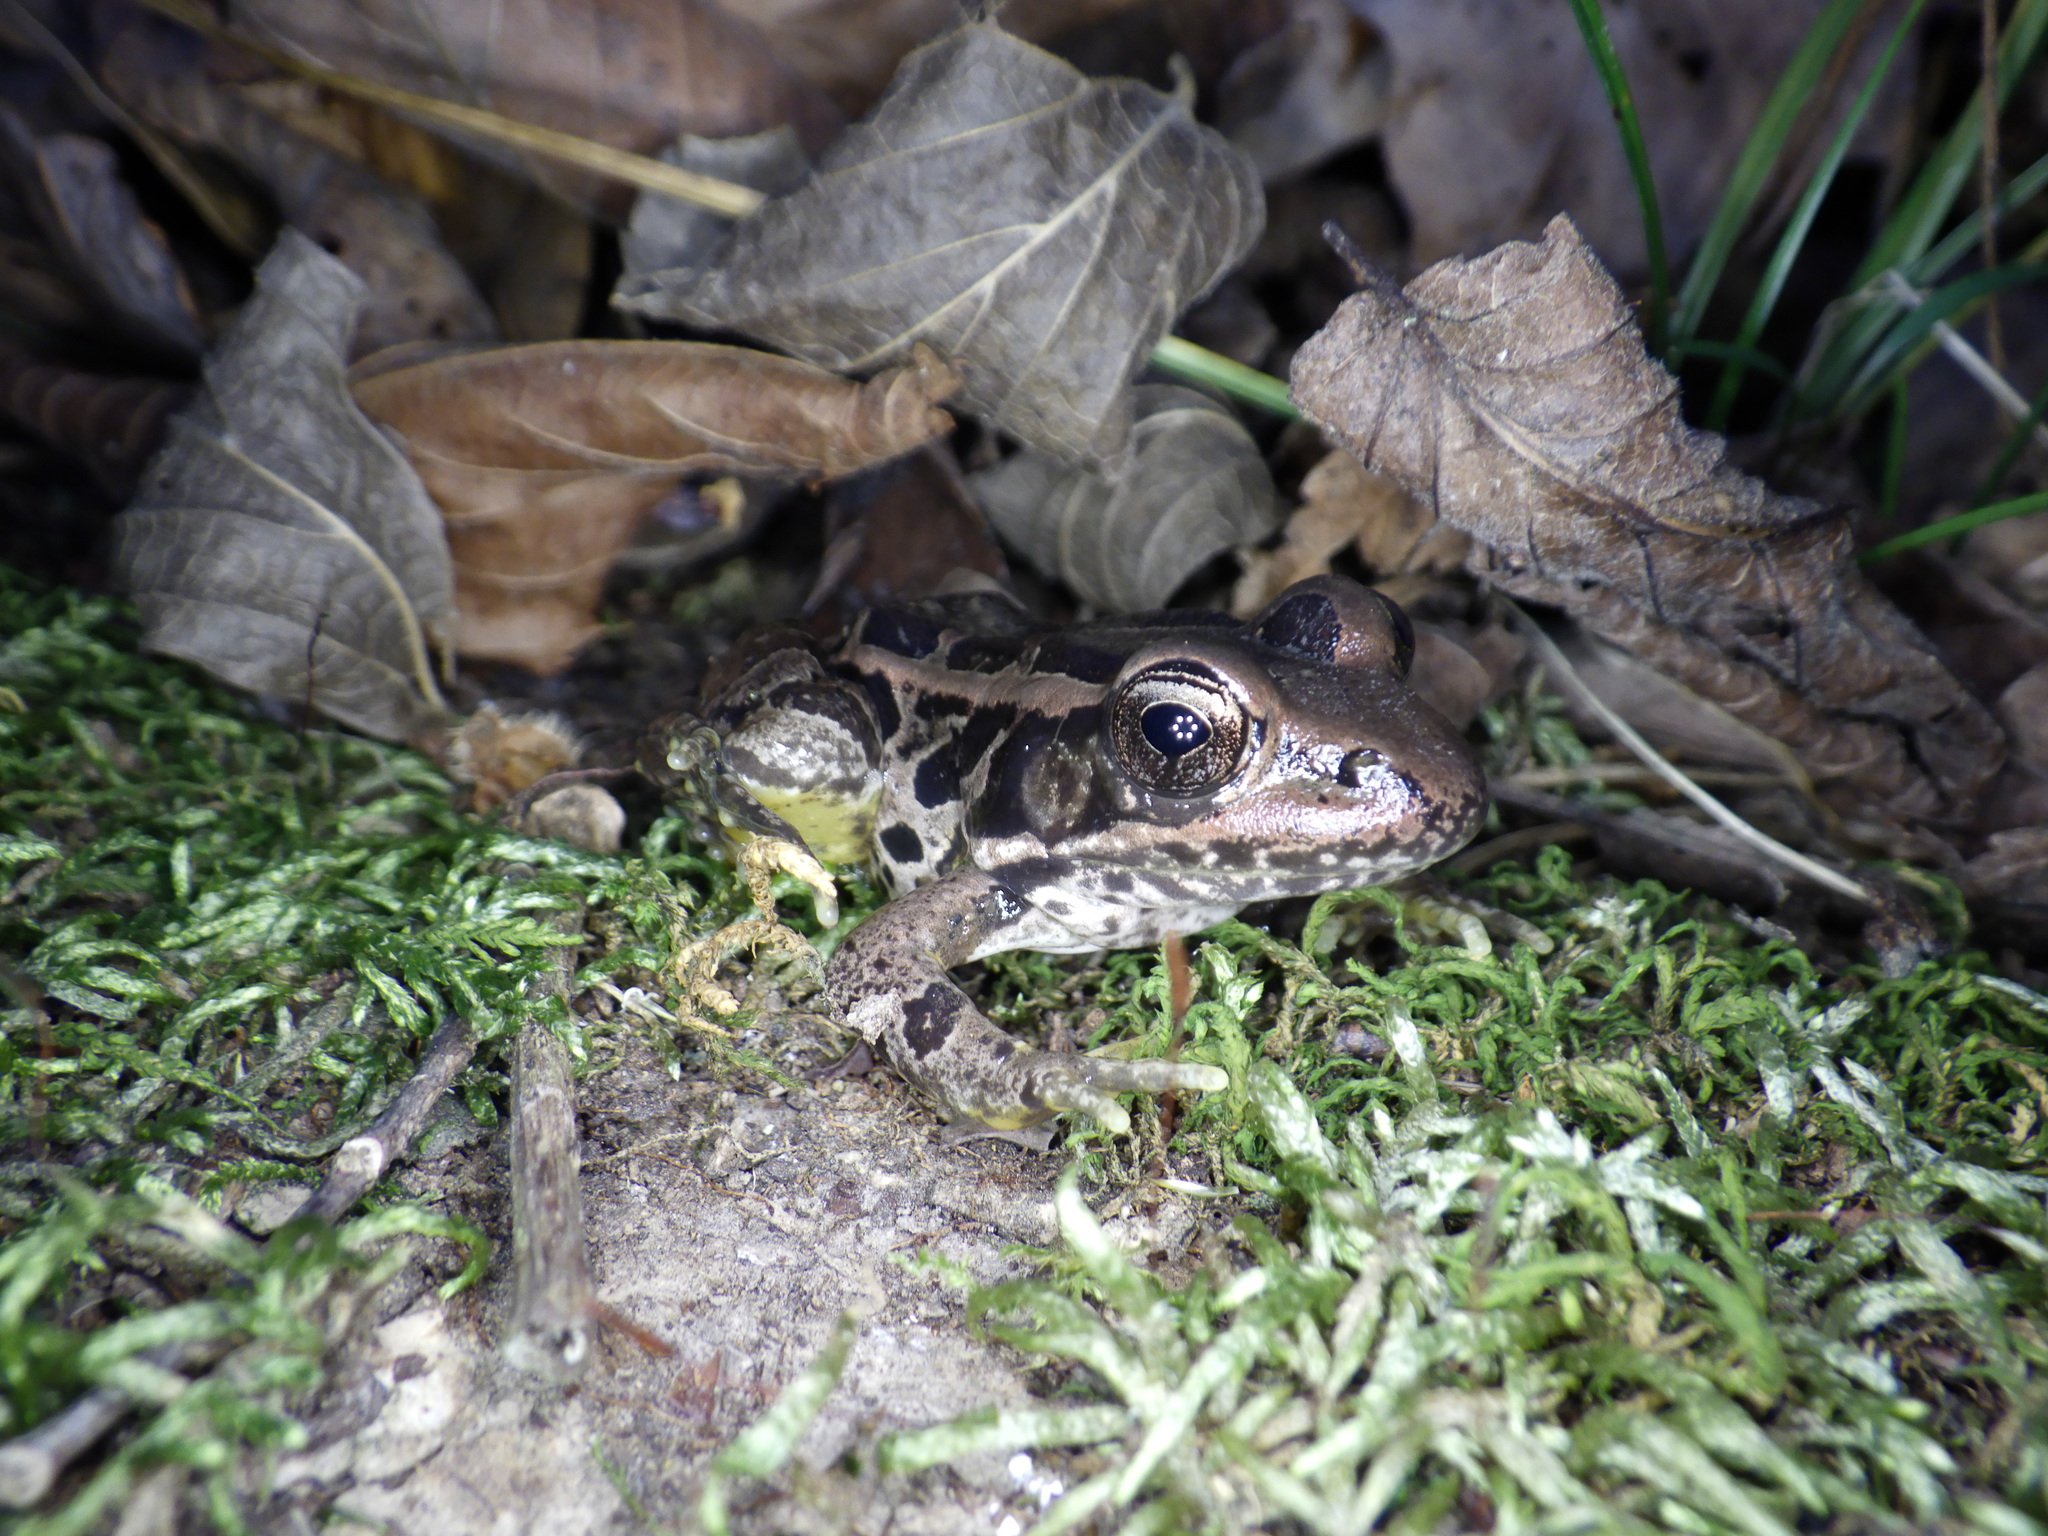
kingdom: Animalia
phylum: Chordata
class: Amphibia
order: Anura
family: Ranidae
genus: Lithobates
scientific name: Lithobates palustris
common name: Pickerel frog
